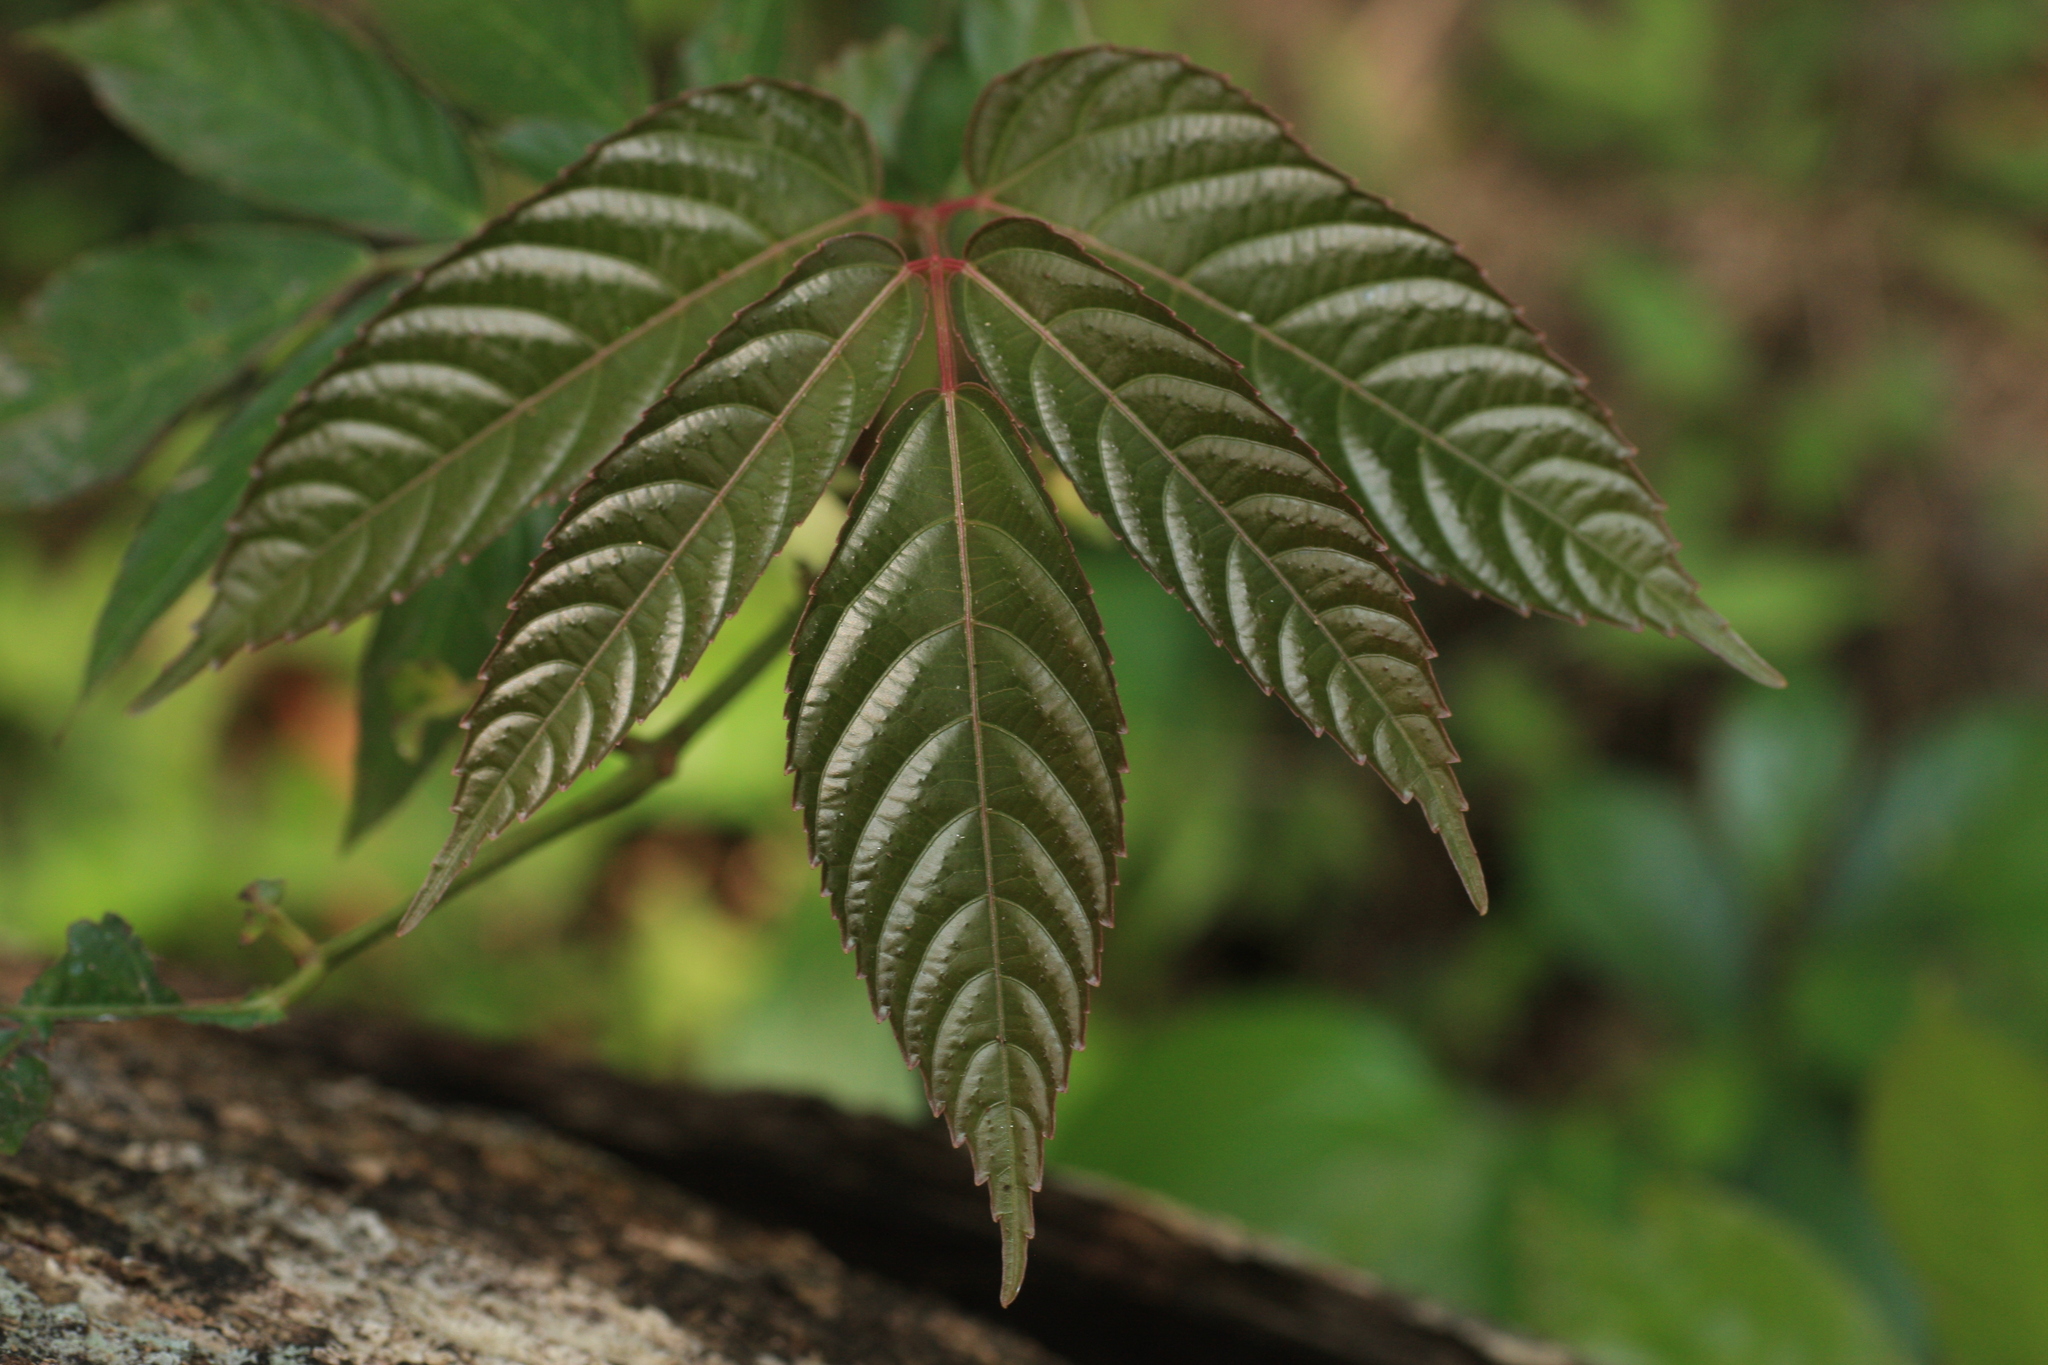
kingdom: Plantae
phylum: Tracheophyta
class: Magnoliopsida
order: Vitales
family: Vitaceae
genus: Leea
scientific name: Leea indica
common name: Bandicoot-berry
